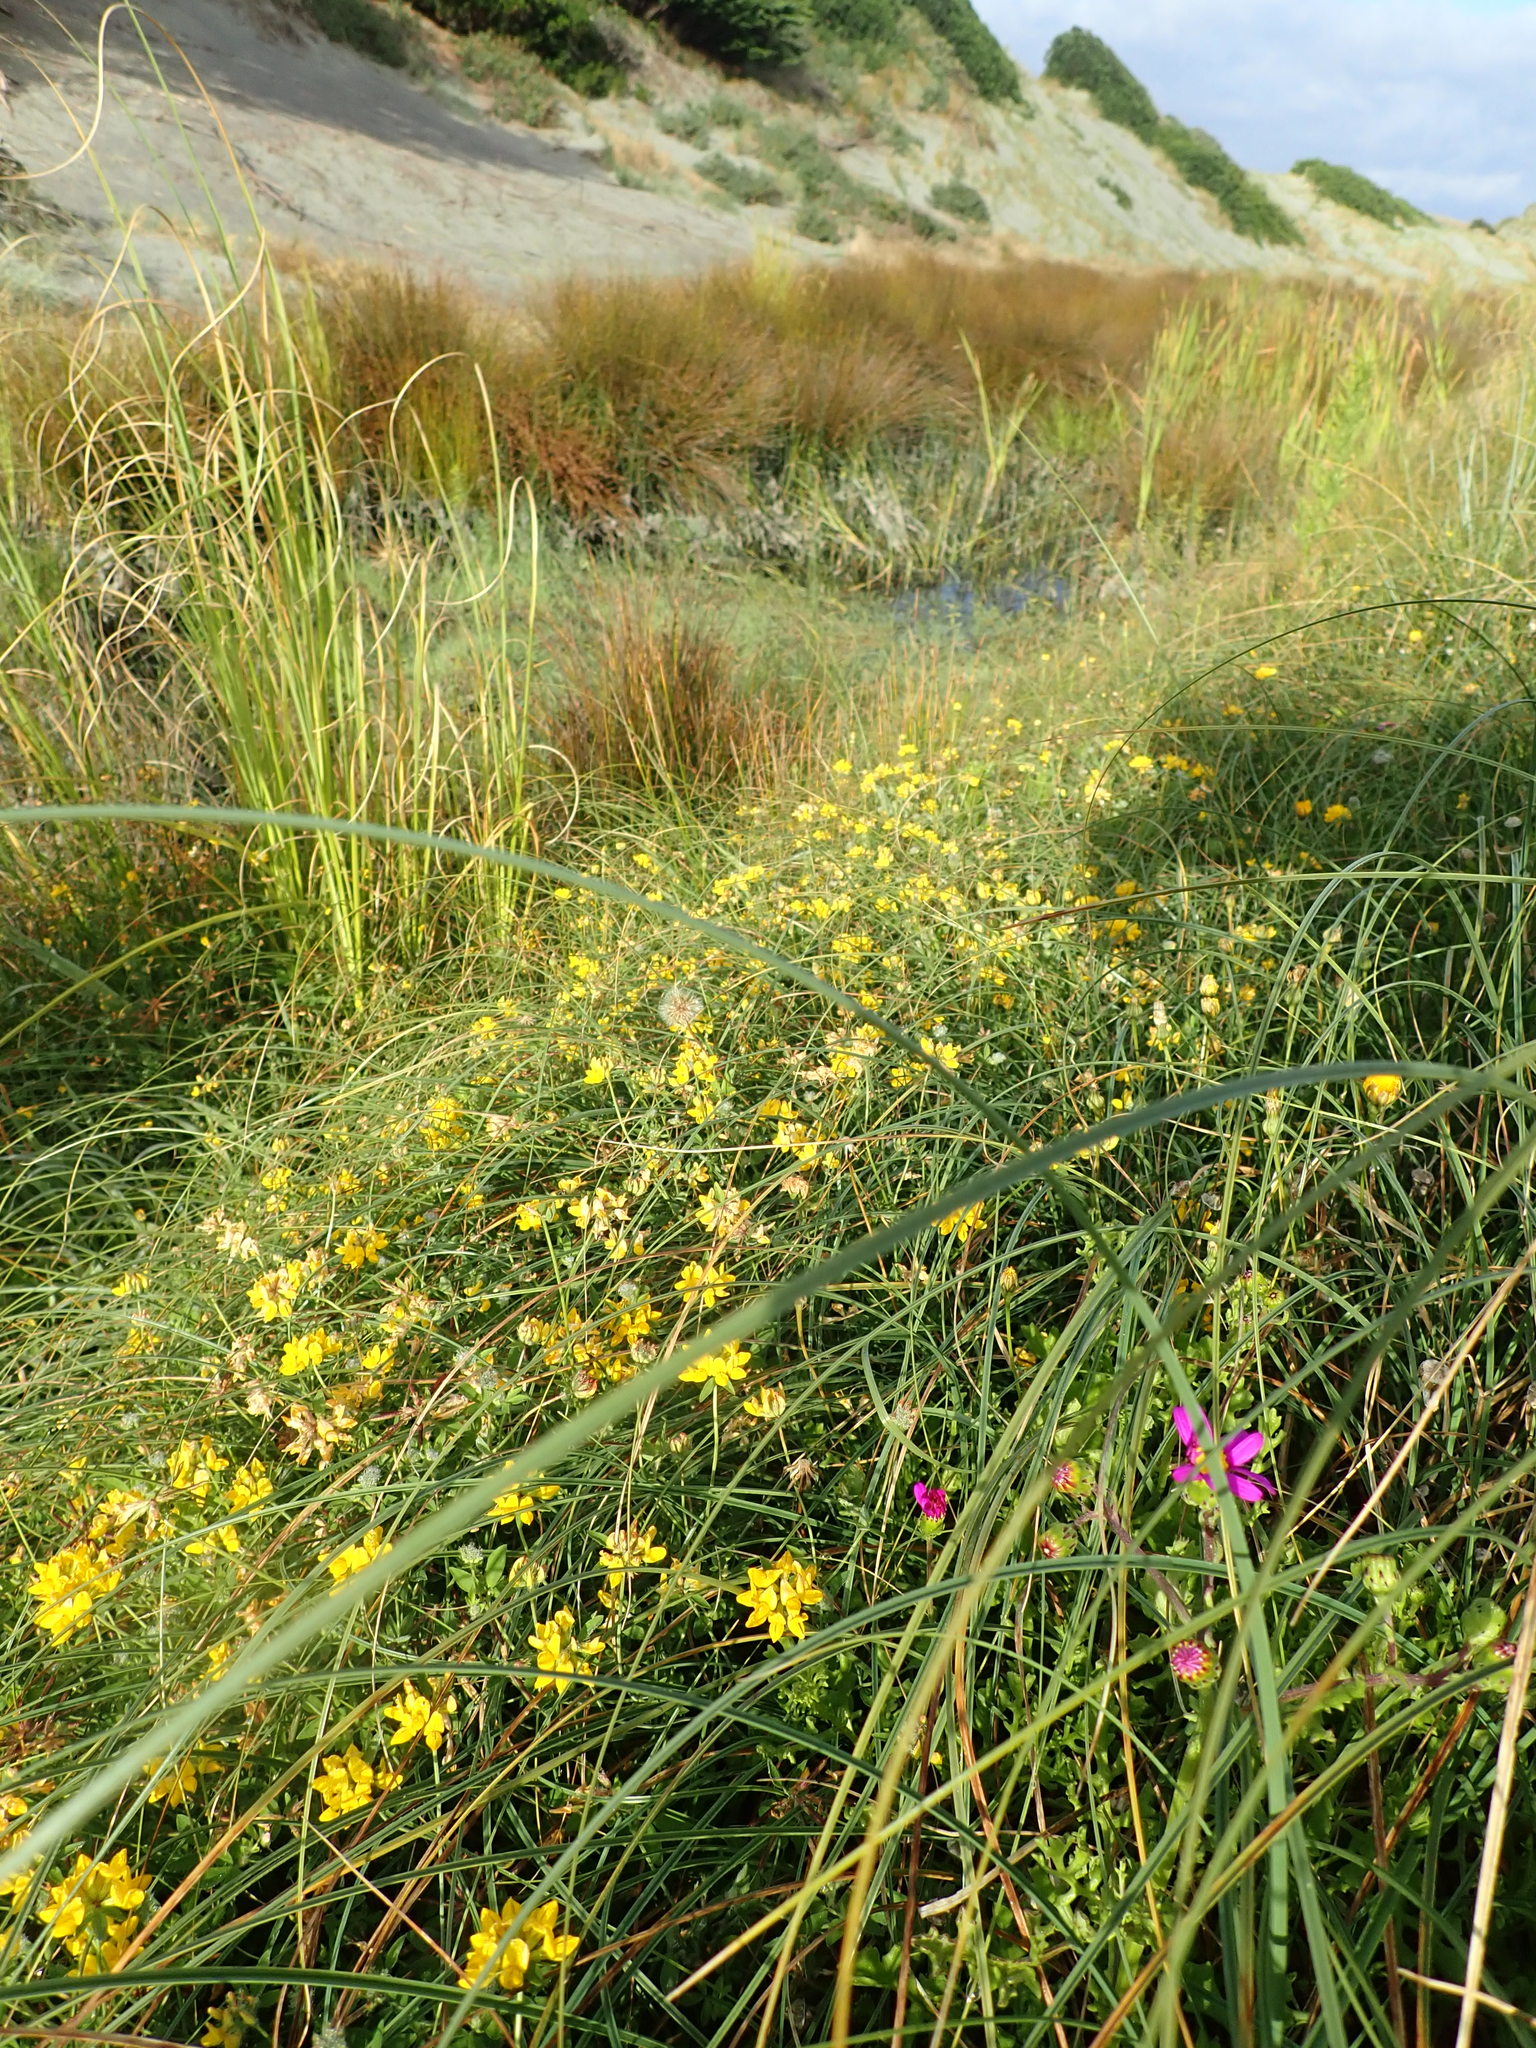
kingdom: Plantae
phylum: Tracheophyta
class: Magnoliopsida
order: Fabales
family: Fabaceae
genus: Lotus
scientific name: Lotus pedunculatus
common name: Greater birdsfoot-trefoil
